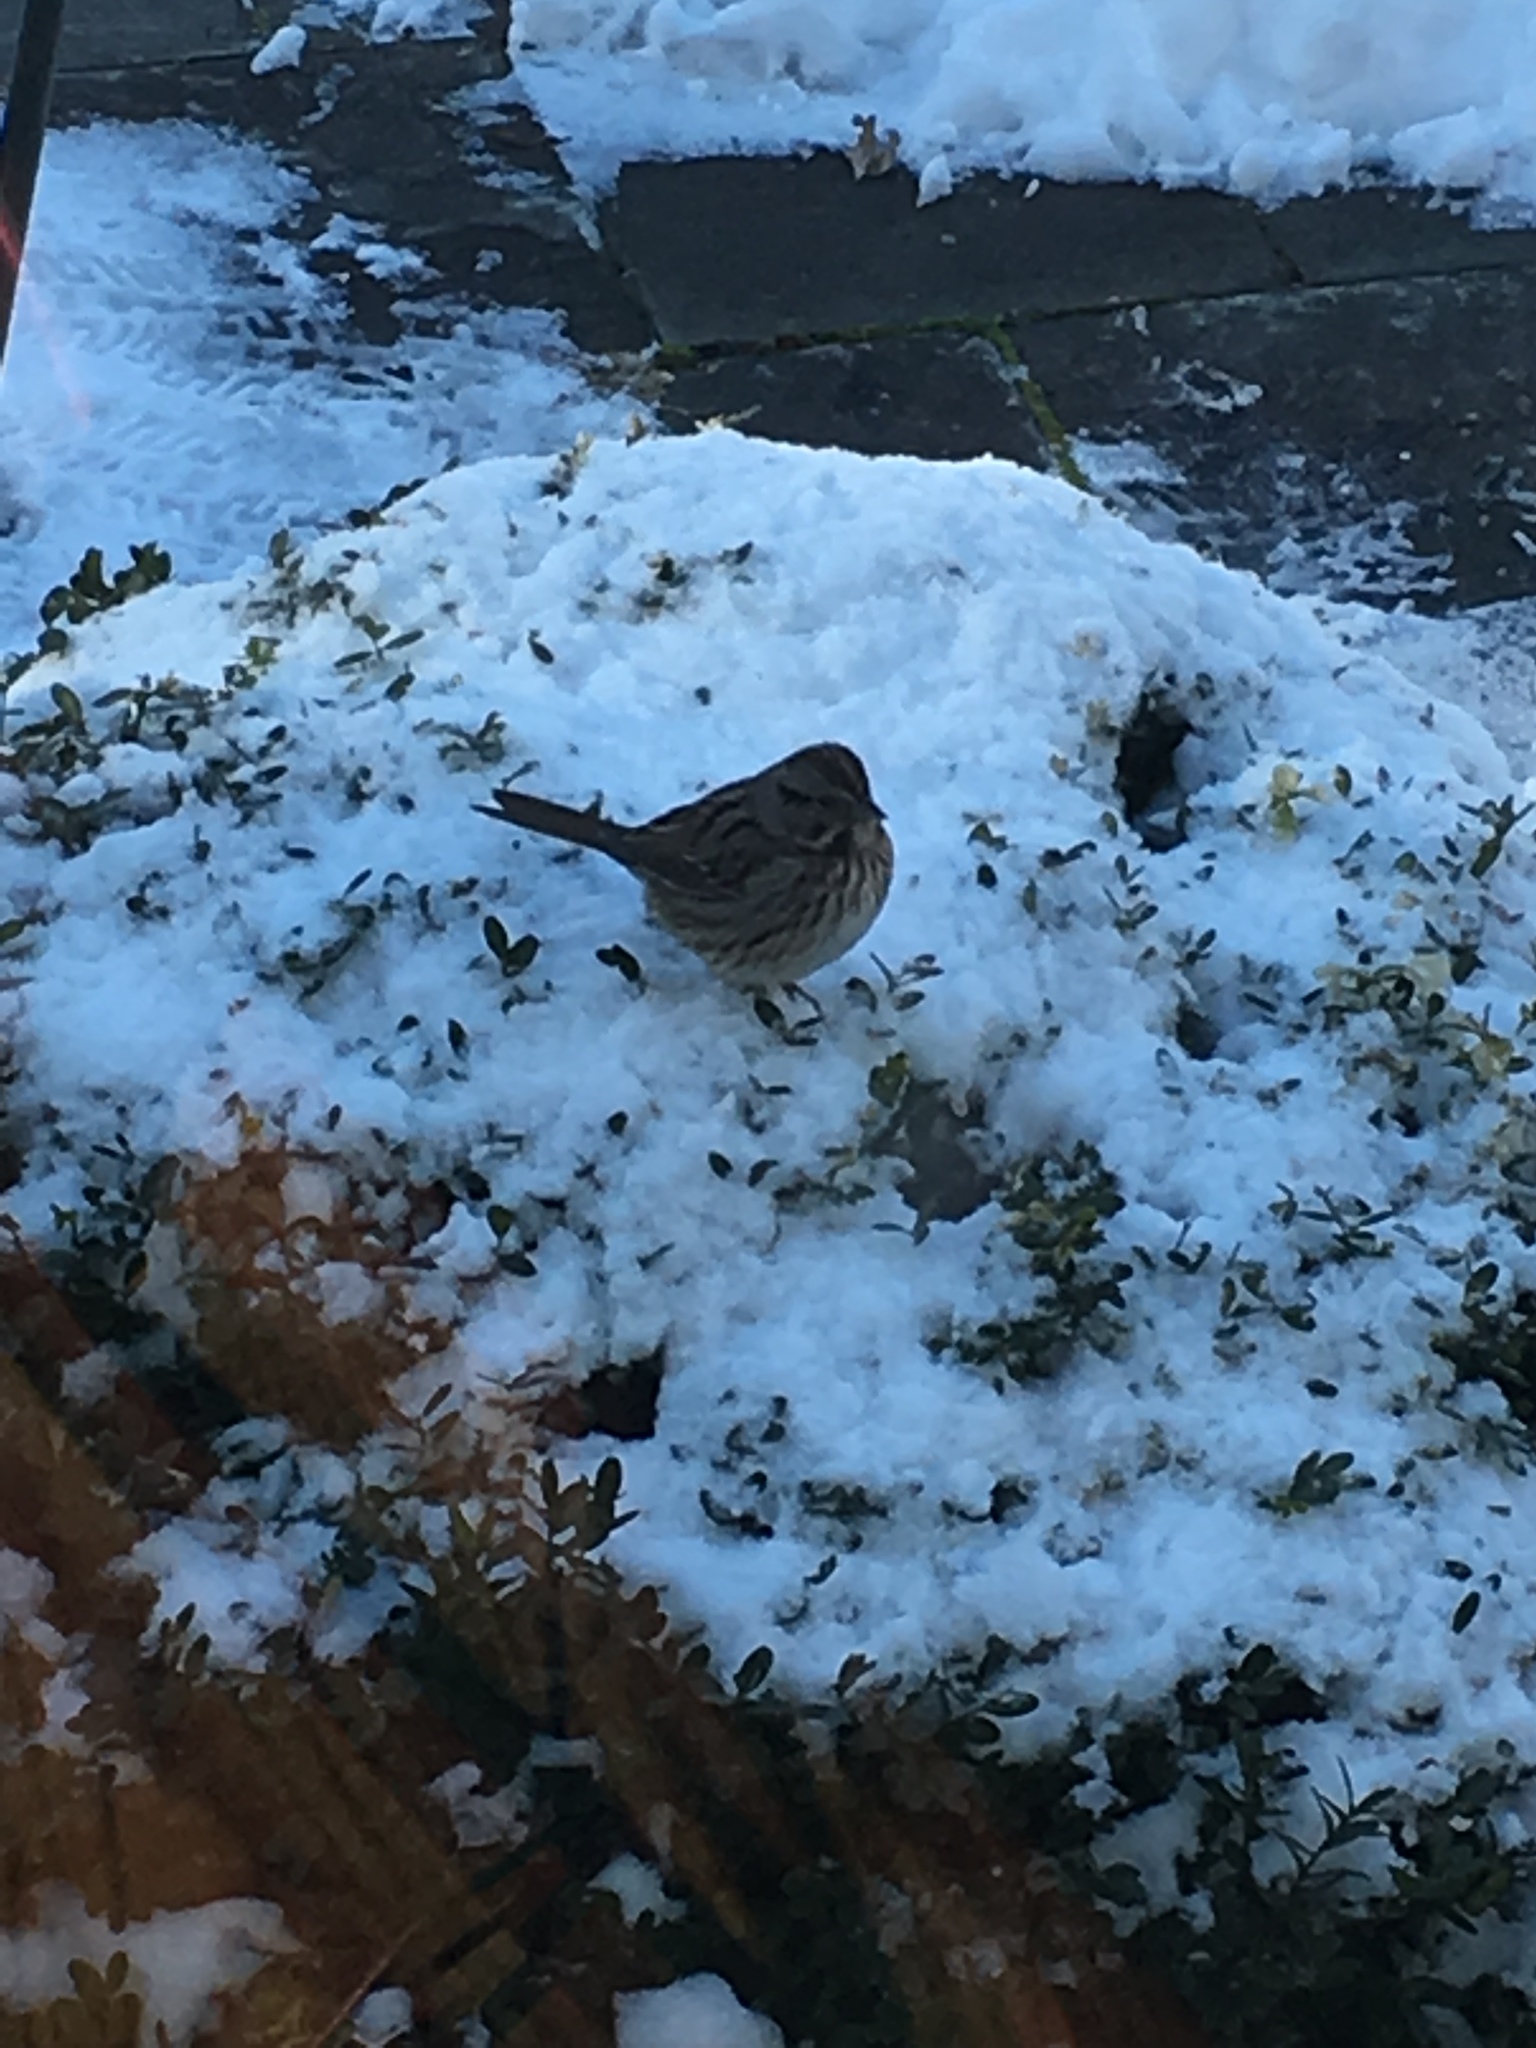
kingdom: Animalia
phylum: Chordata
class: Aves
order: Passeriformes
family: Passerellidae
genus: Melospiza
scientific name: Melospiza melodia
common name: Song sparrow
